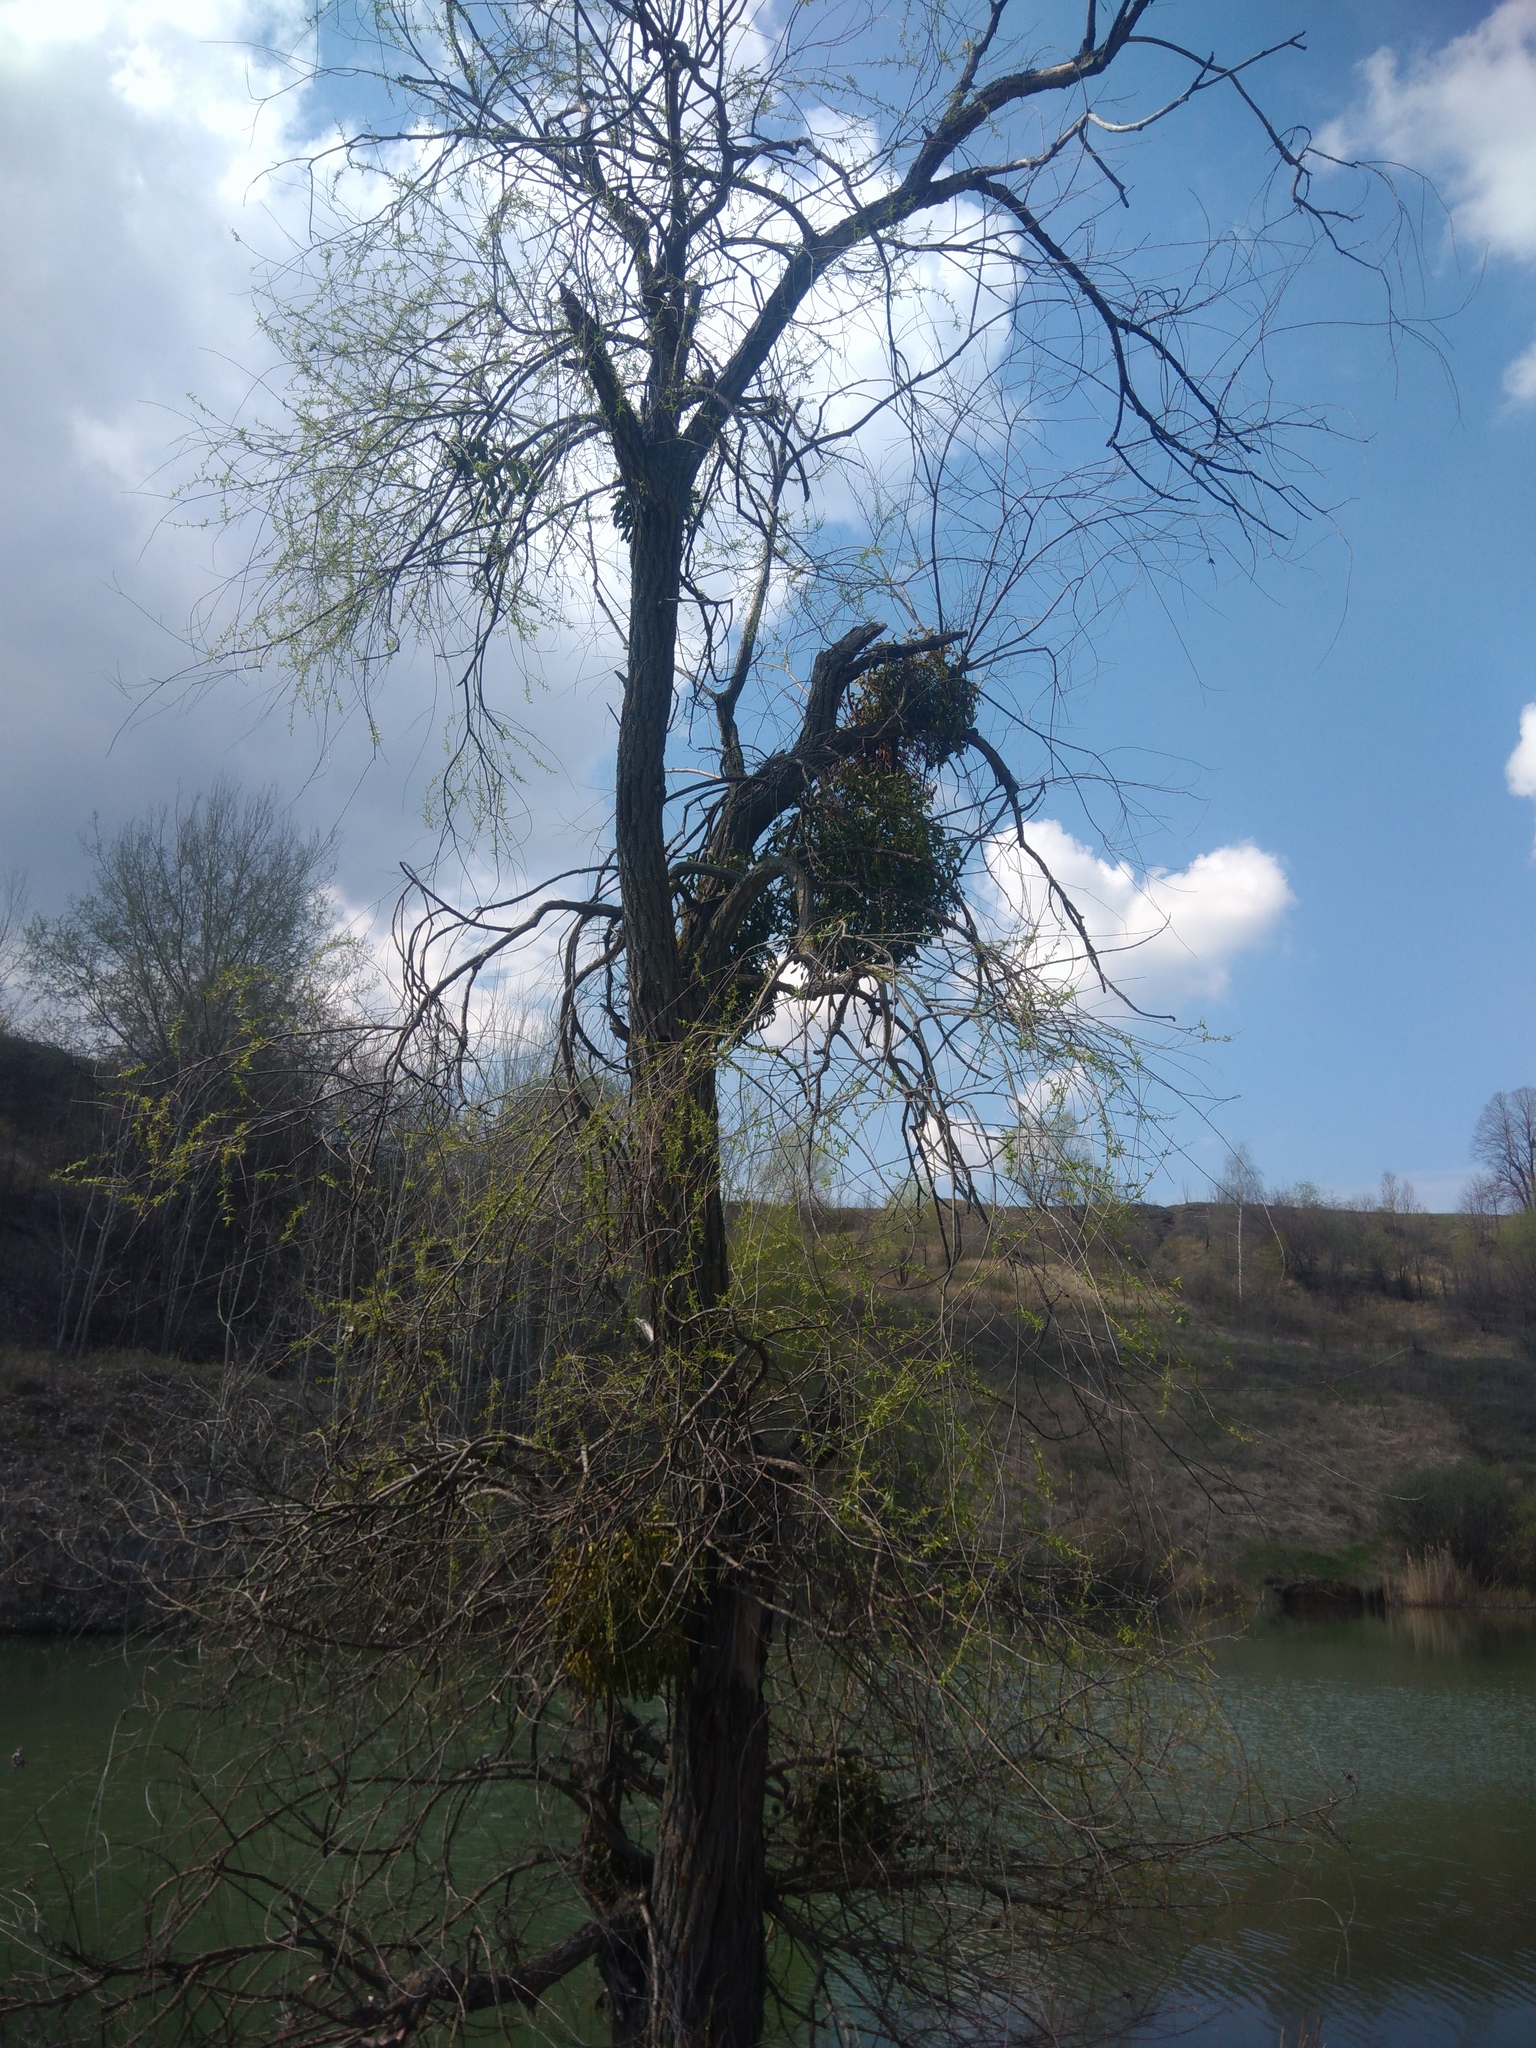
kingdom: Plantae
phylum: Tracheophyta
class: Magnoliopsida
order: Santalales
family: Viscaceae
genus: Viscum
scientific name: Viscum album
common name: Mistletoe
